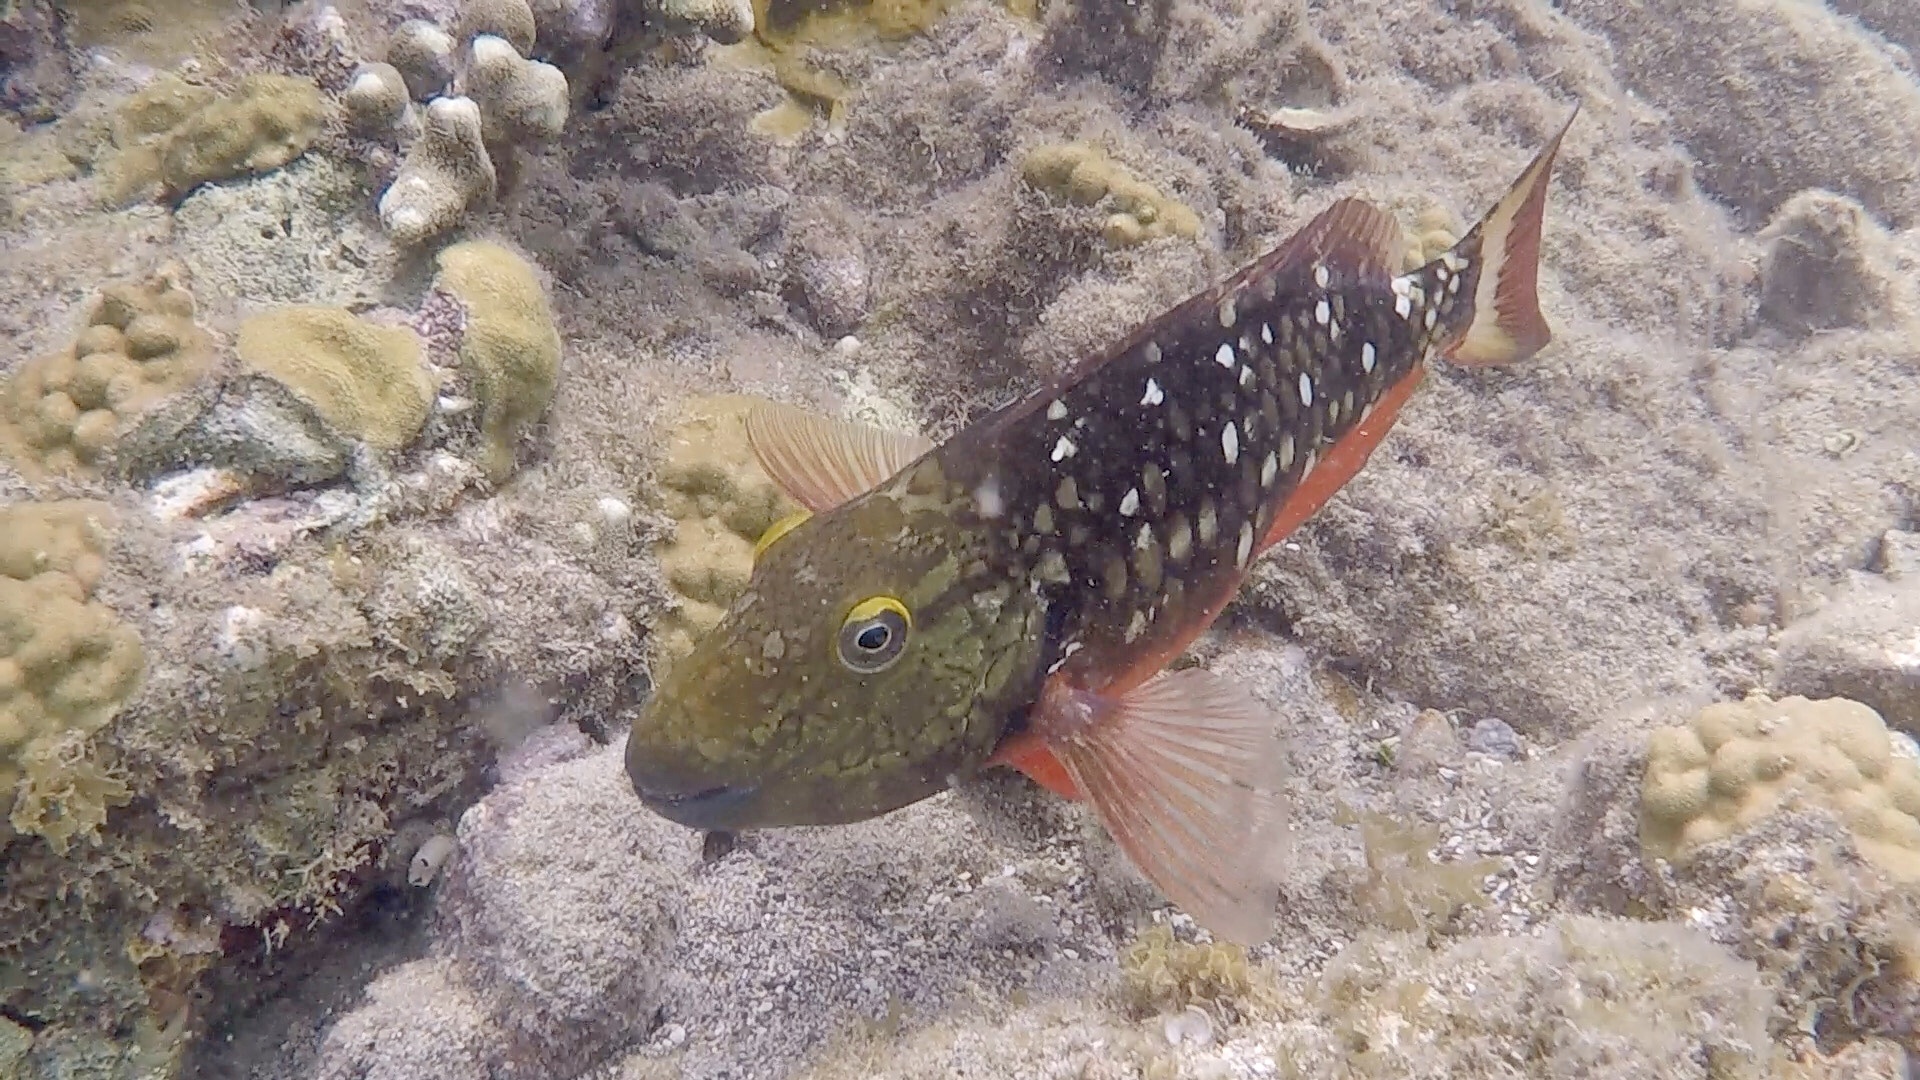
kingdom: Animalia
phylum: Chordata
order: Perciformes
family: Scaridae
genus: Sparisoma
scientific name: Sparisoma viride
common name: Stoplight parrotfish
